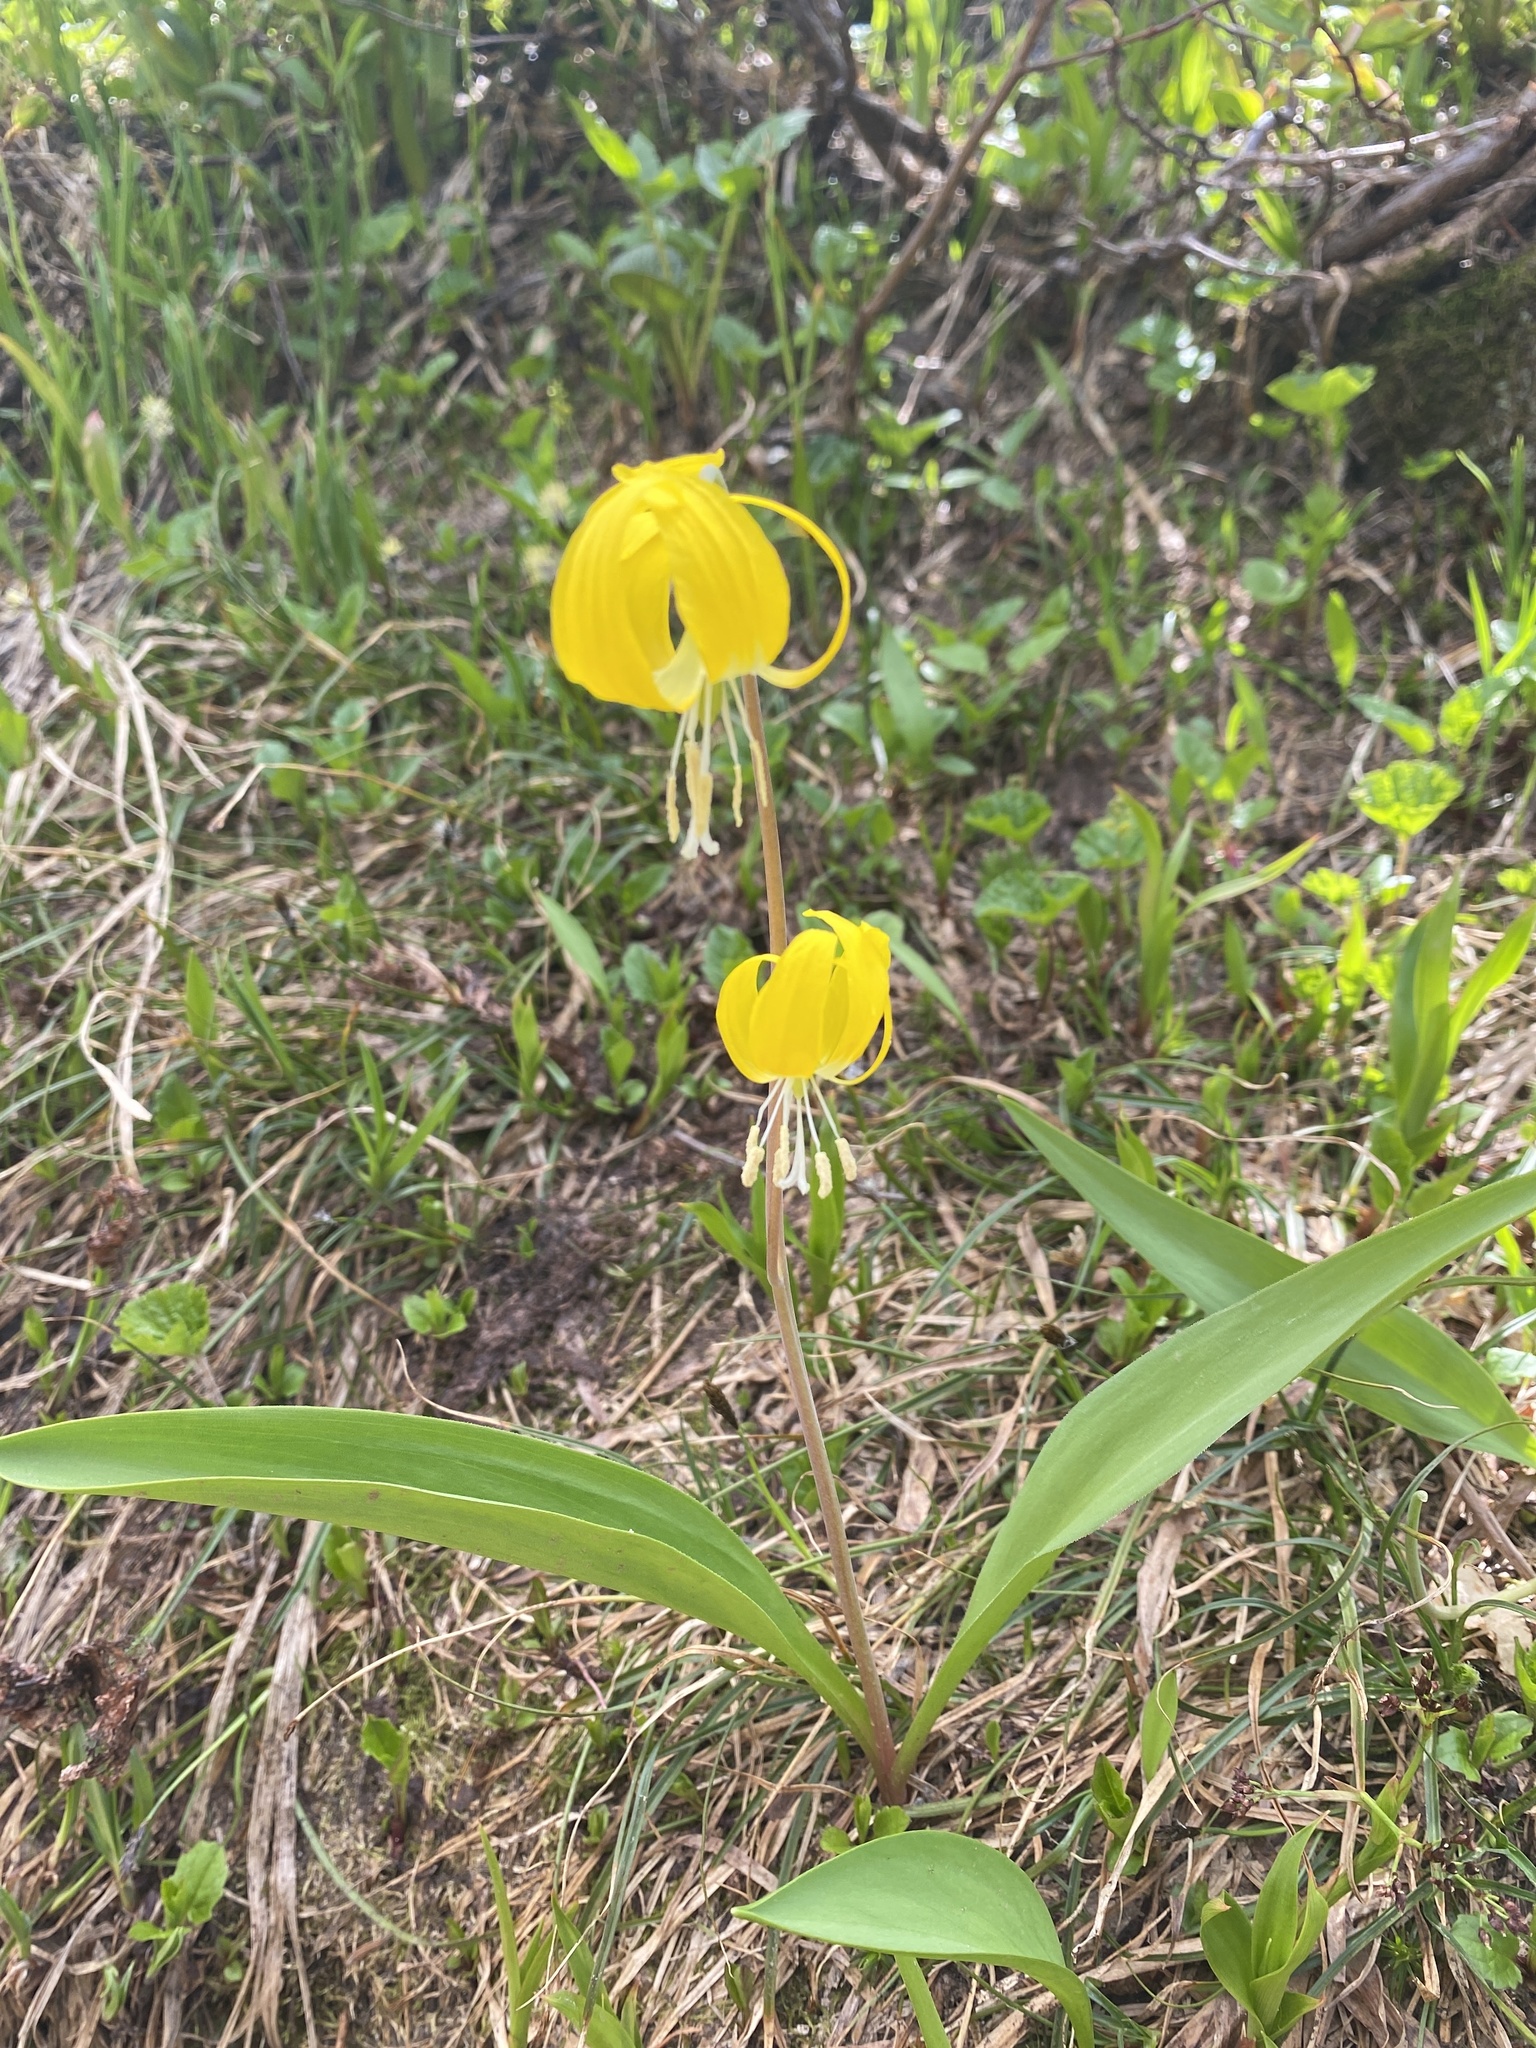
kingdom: Plantae
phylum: Tracheophyta
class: Liliopsida
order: Liliales
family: Liliaceae
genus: Erythronium
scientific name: Erythronium grandiflorum
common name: Avalanche-lily
